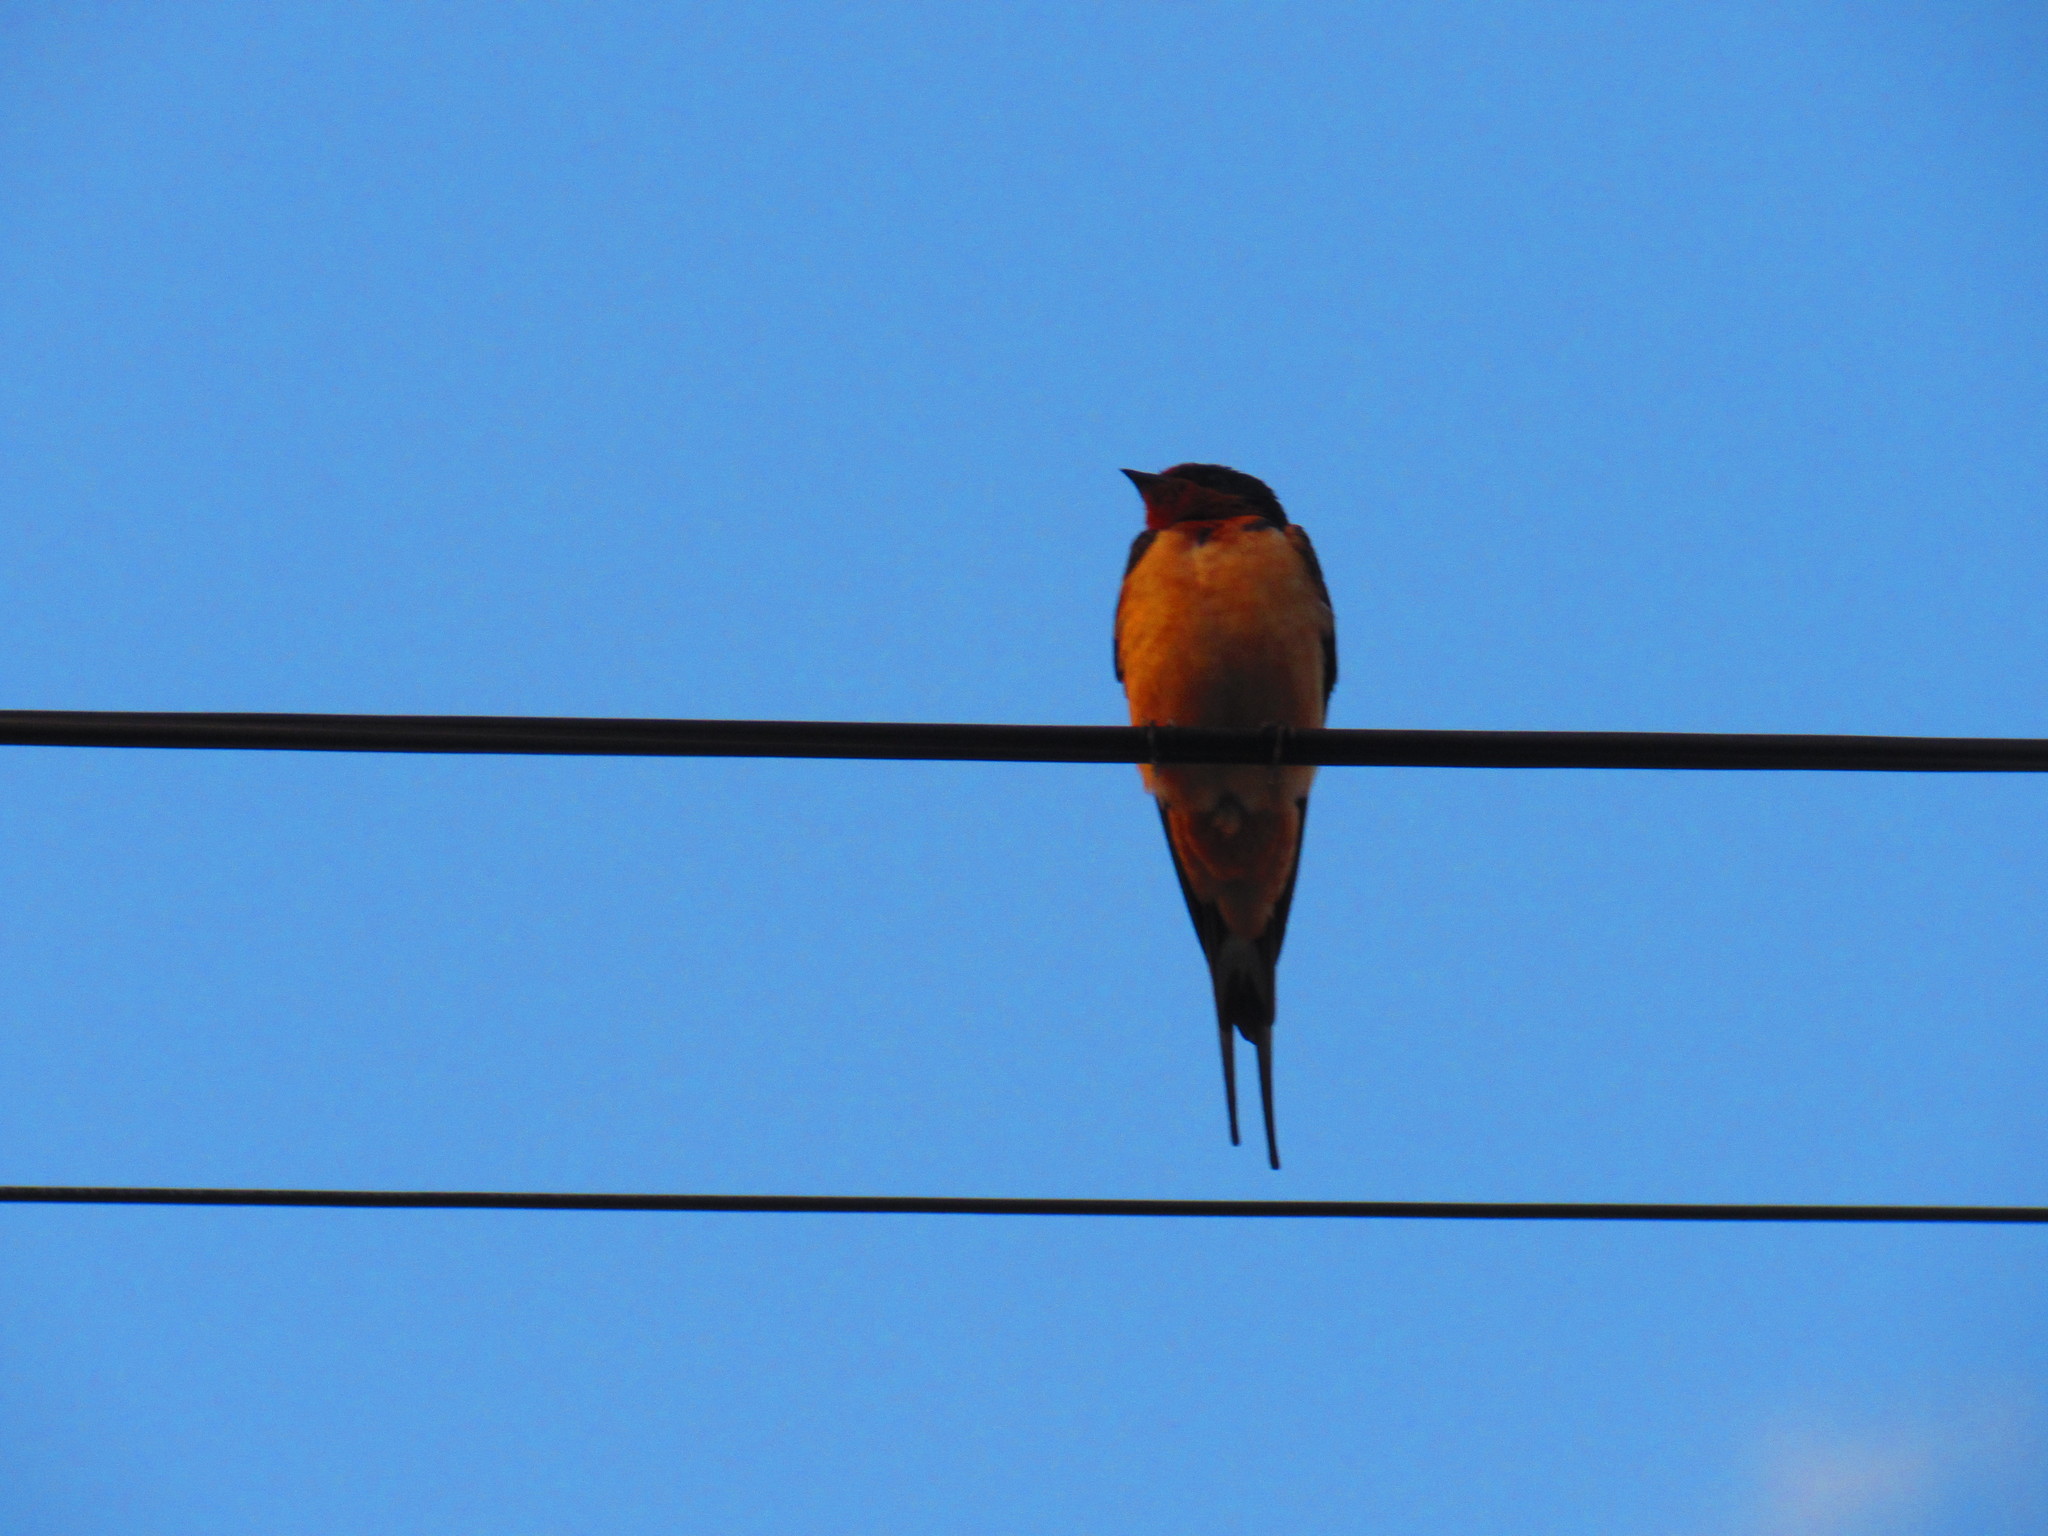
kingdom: Animalia
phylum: Chordata
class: Aves
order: Passeriformes
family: Hirundinidae
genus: Hirundo
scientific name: Hirundo rustica
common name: Barn swallow
